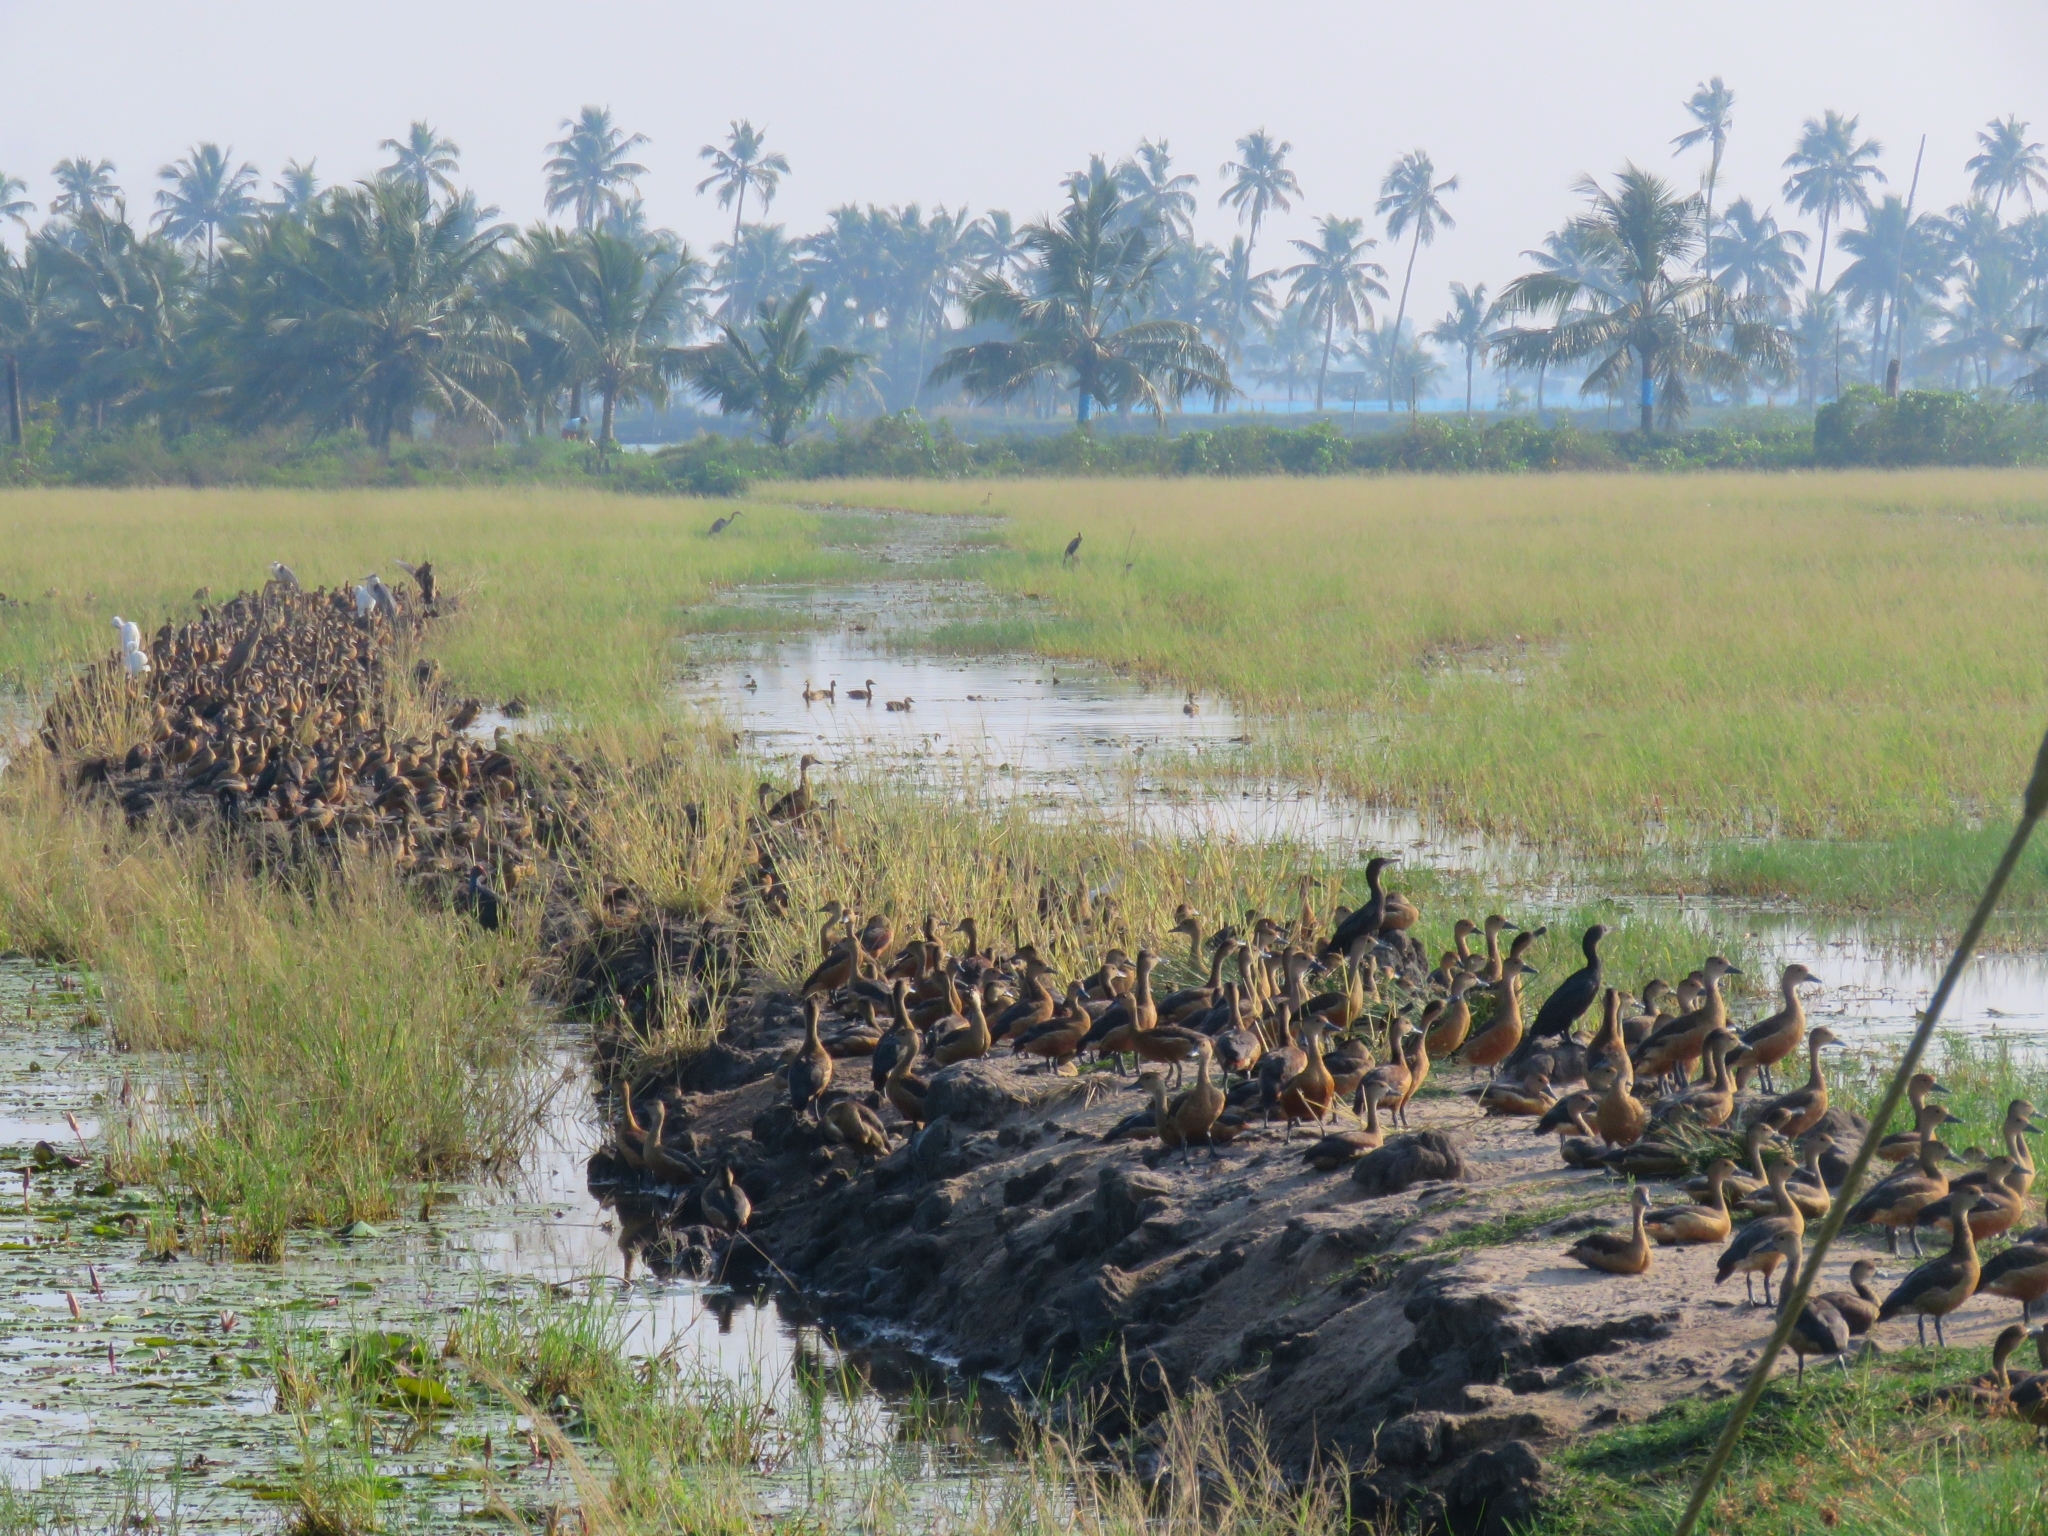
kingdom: Animalia
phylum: Chordata
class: Aves
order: Anseriformes
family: Anatidae
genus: Dendrocygna
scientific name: Dendrocygna javanica
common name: Lesser whistling-duck
